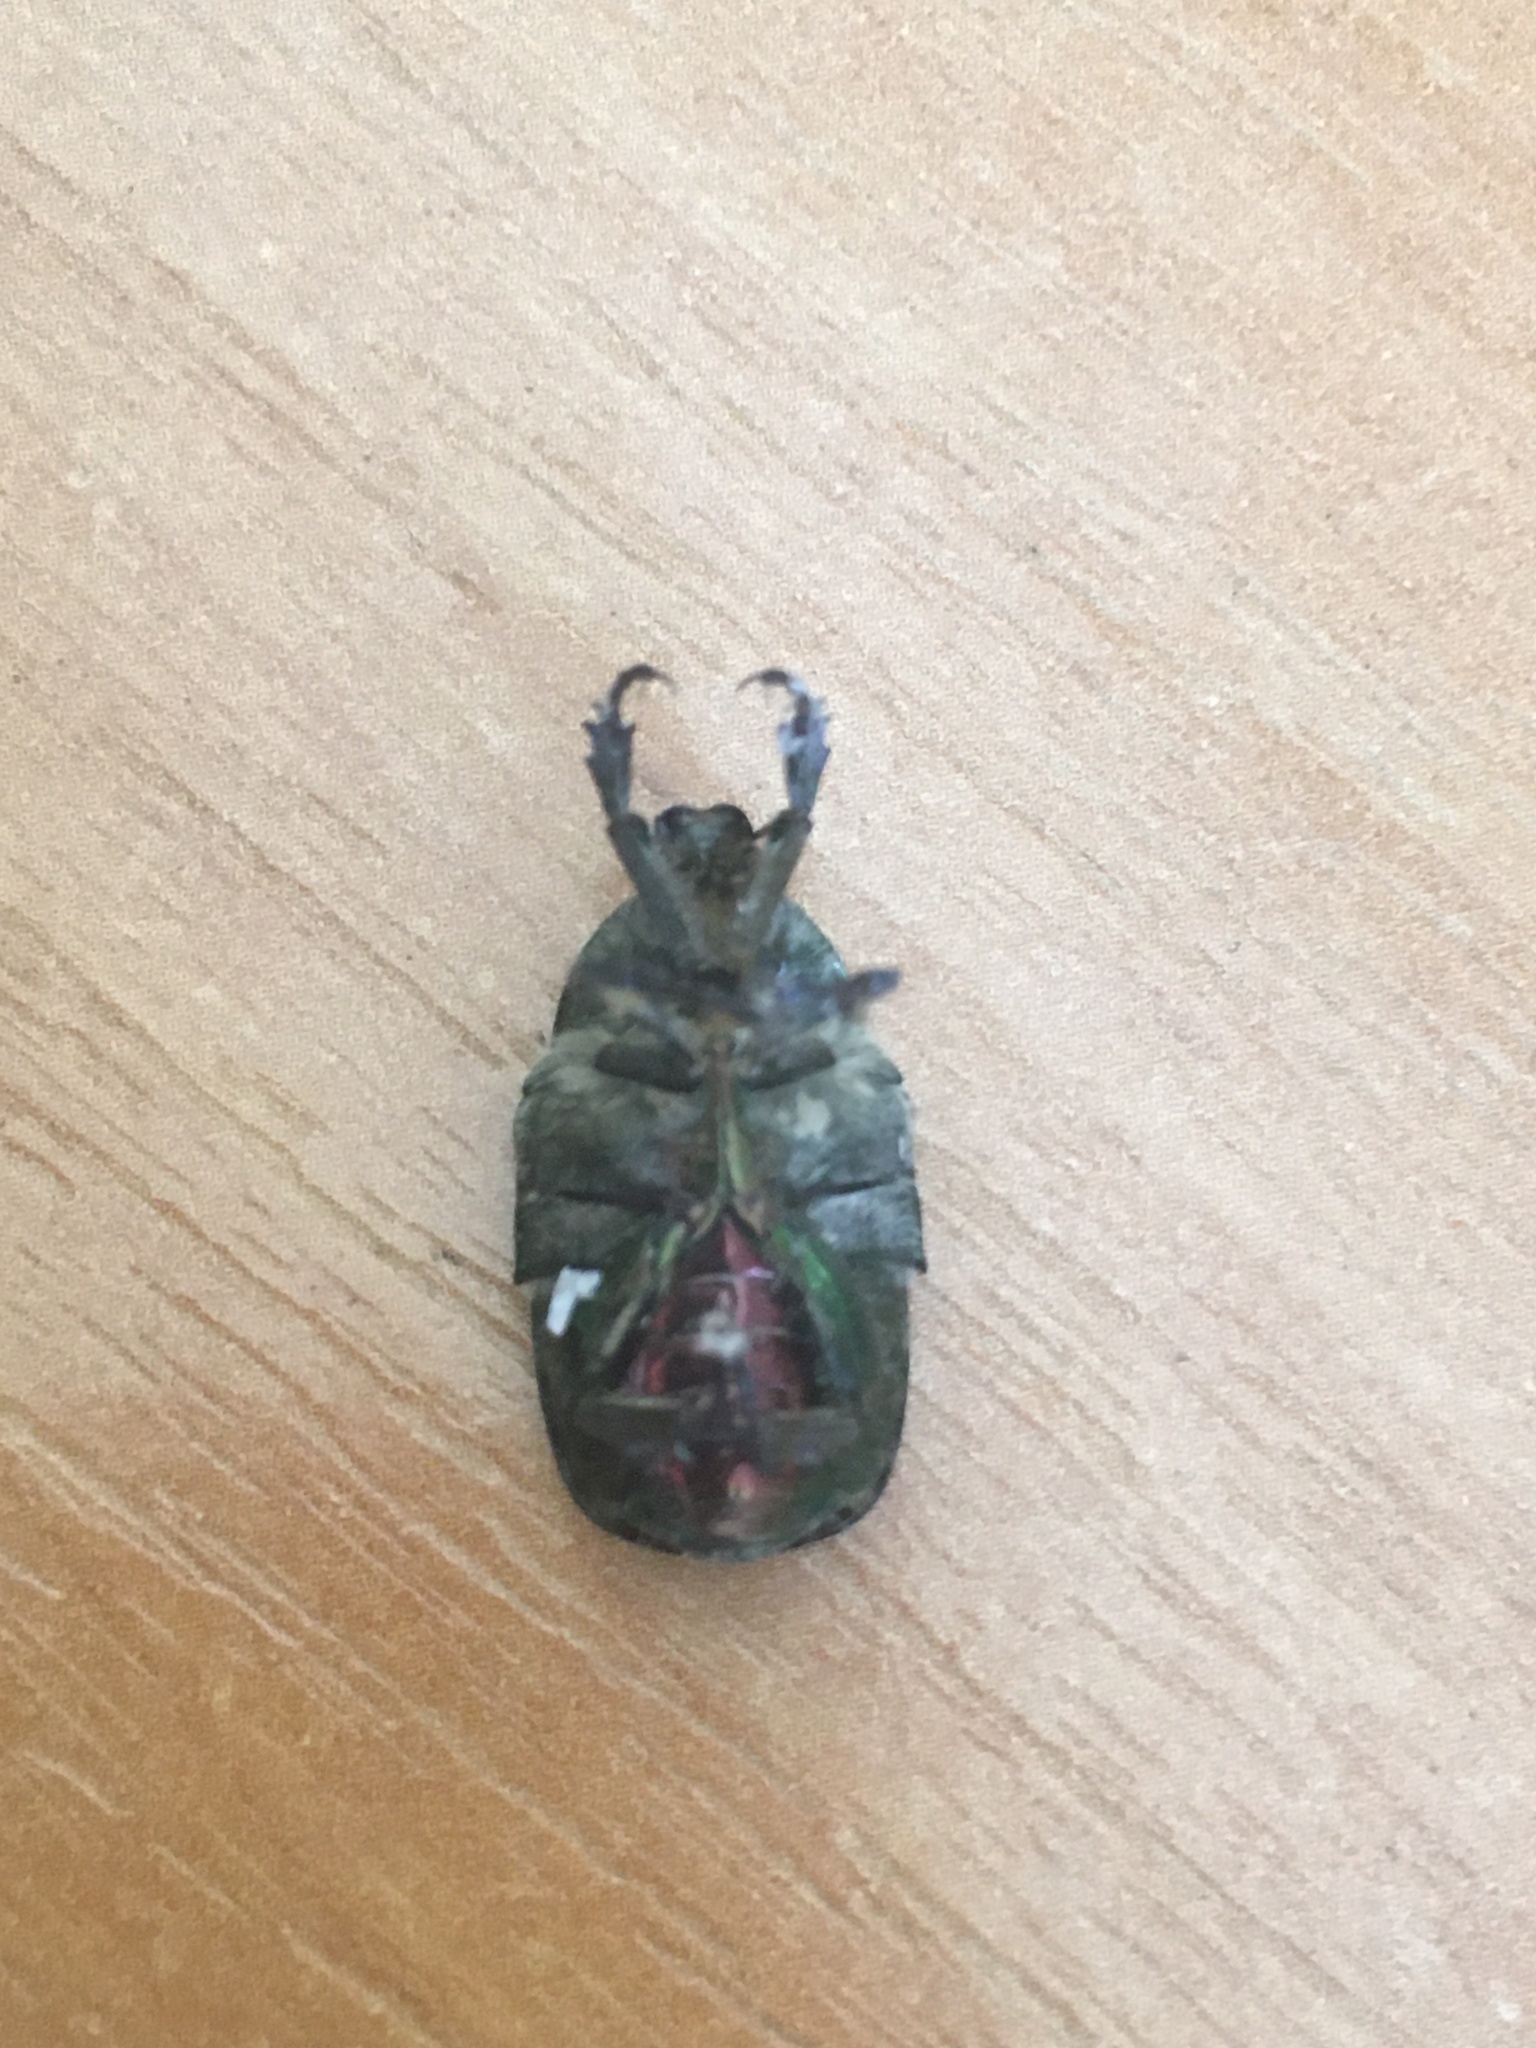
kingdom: Animalia
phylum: Arthropoda
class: Insecta
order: Coleoptera
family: Scarabaeidae
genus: Cetonia
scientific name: Cetonia aurata
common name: Rose chafer
